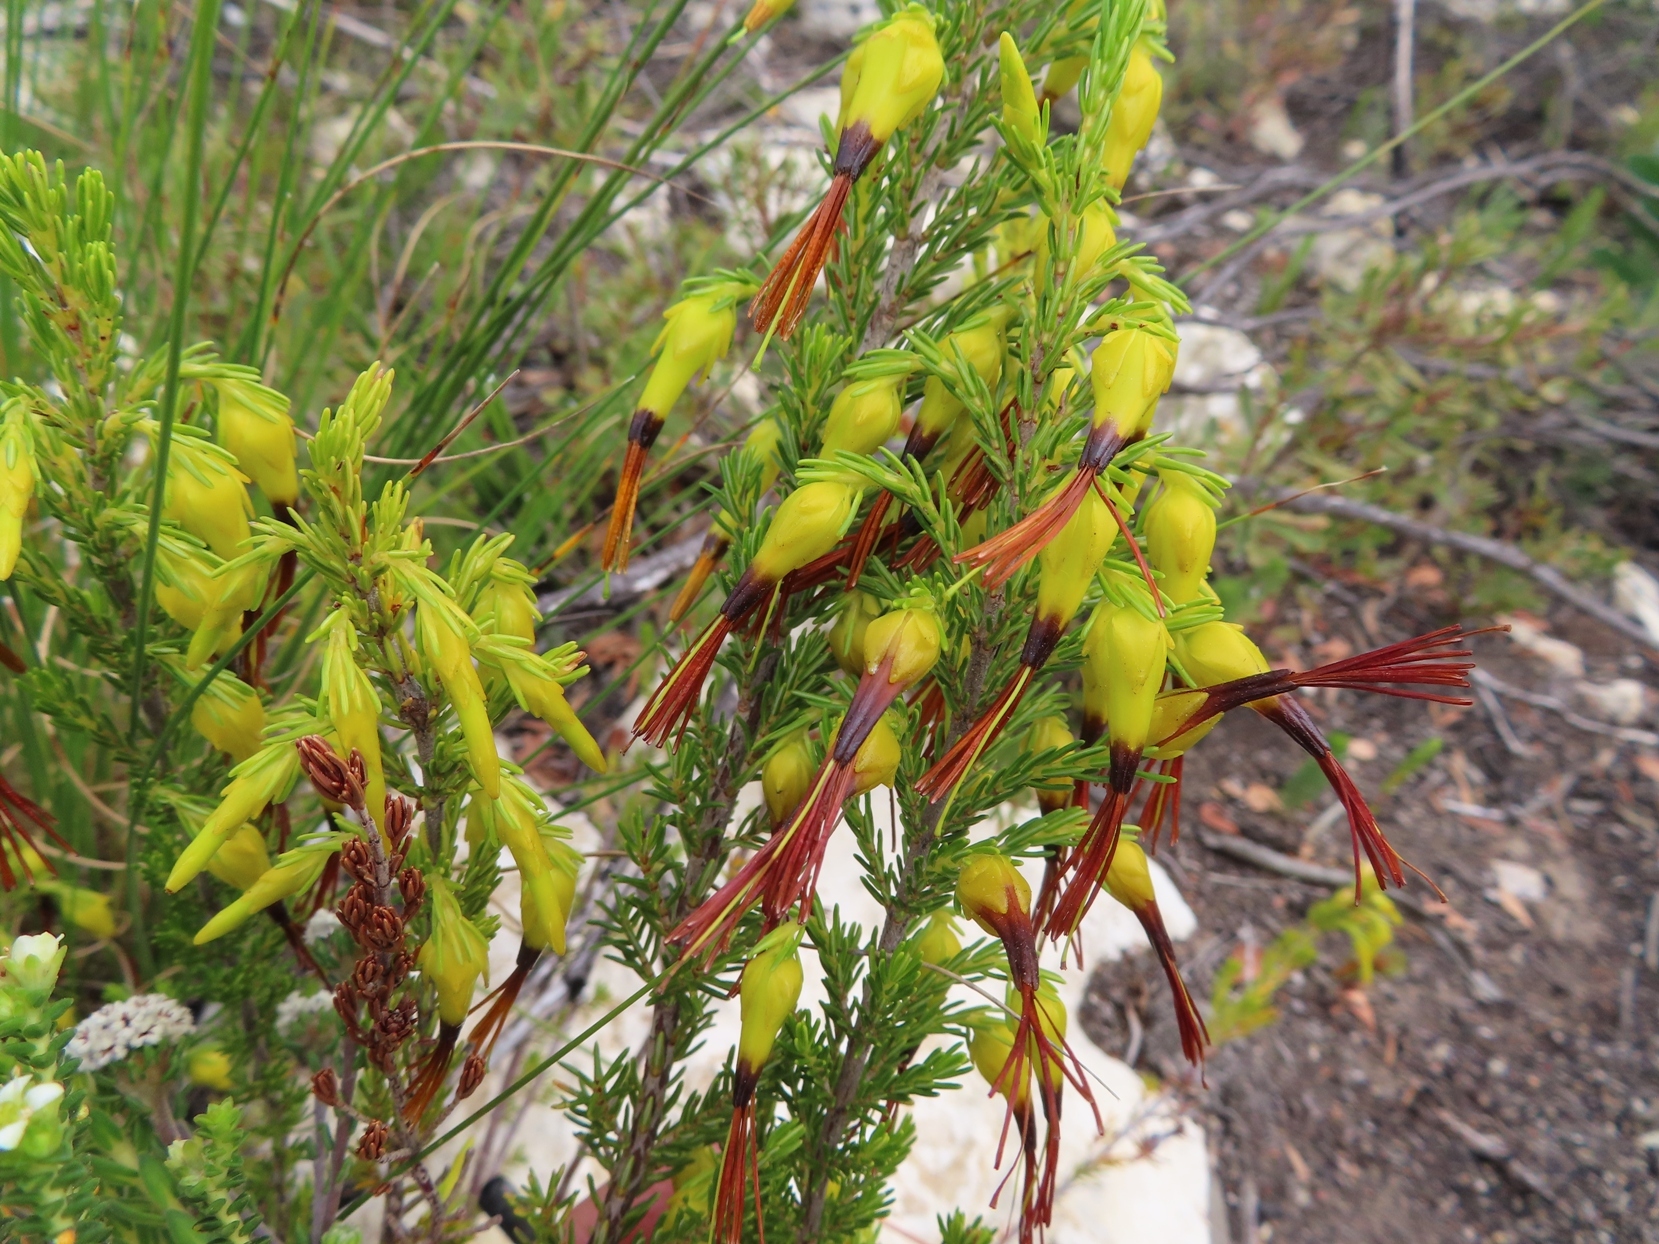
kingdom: Plantae
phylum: Tracheophyta
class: Magnoliopsida
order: Ericales
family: Ericaceae
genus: Erica
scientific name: Erica melastoma
